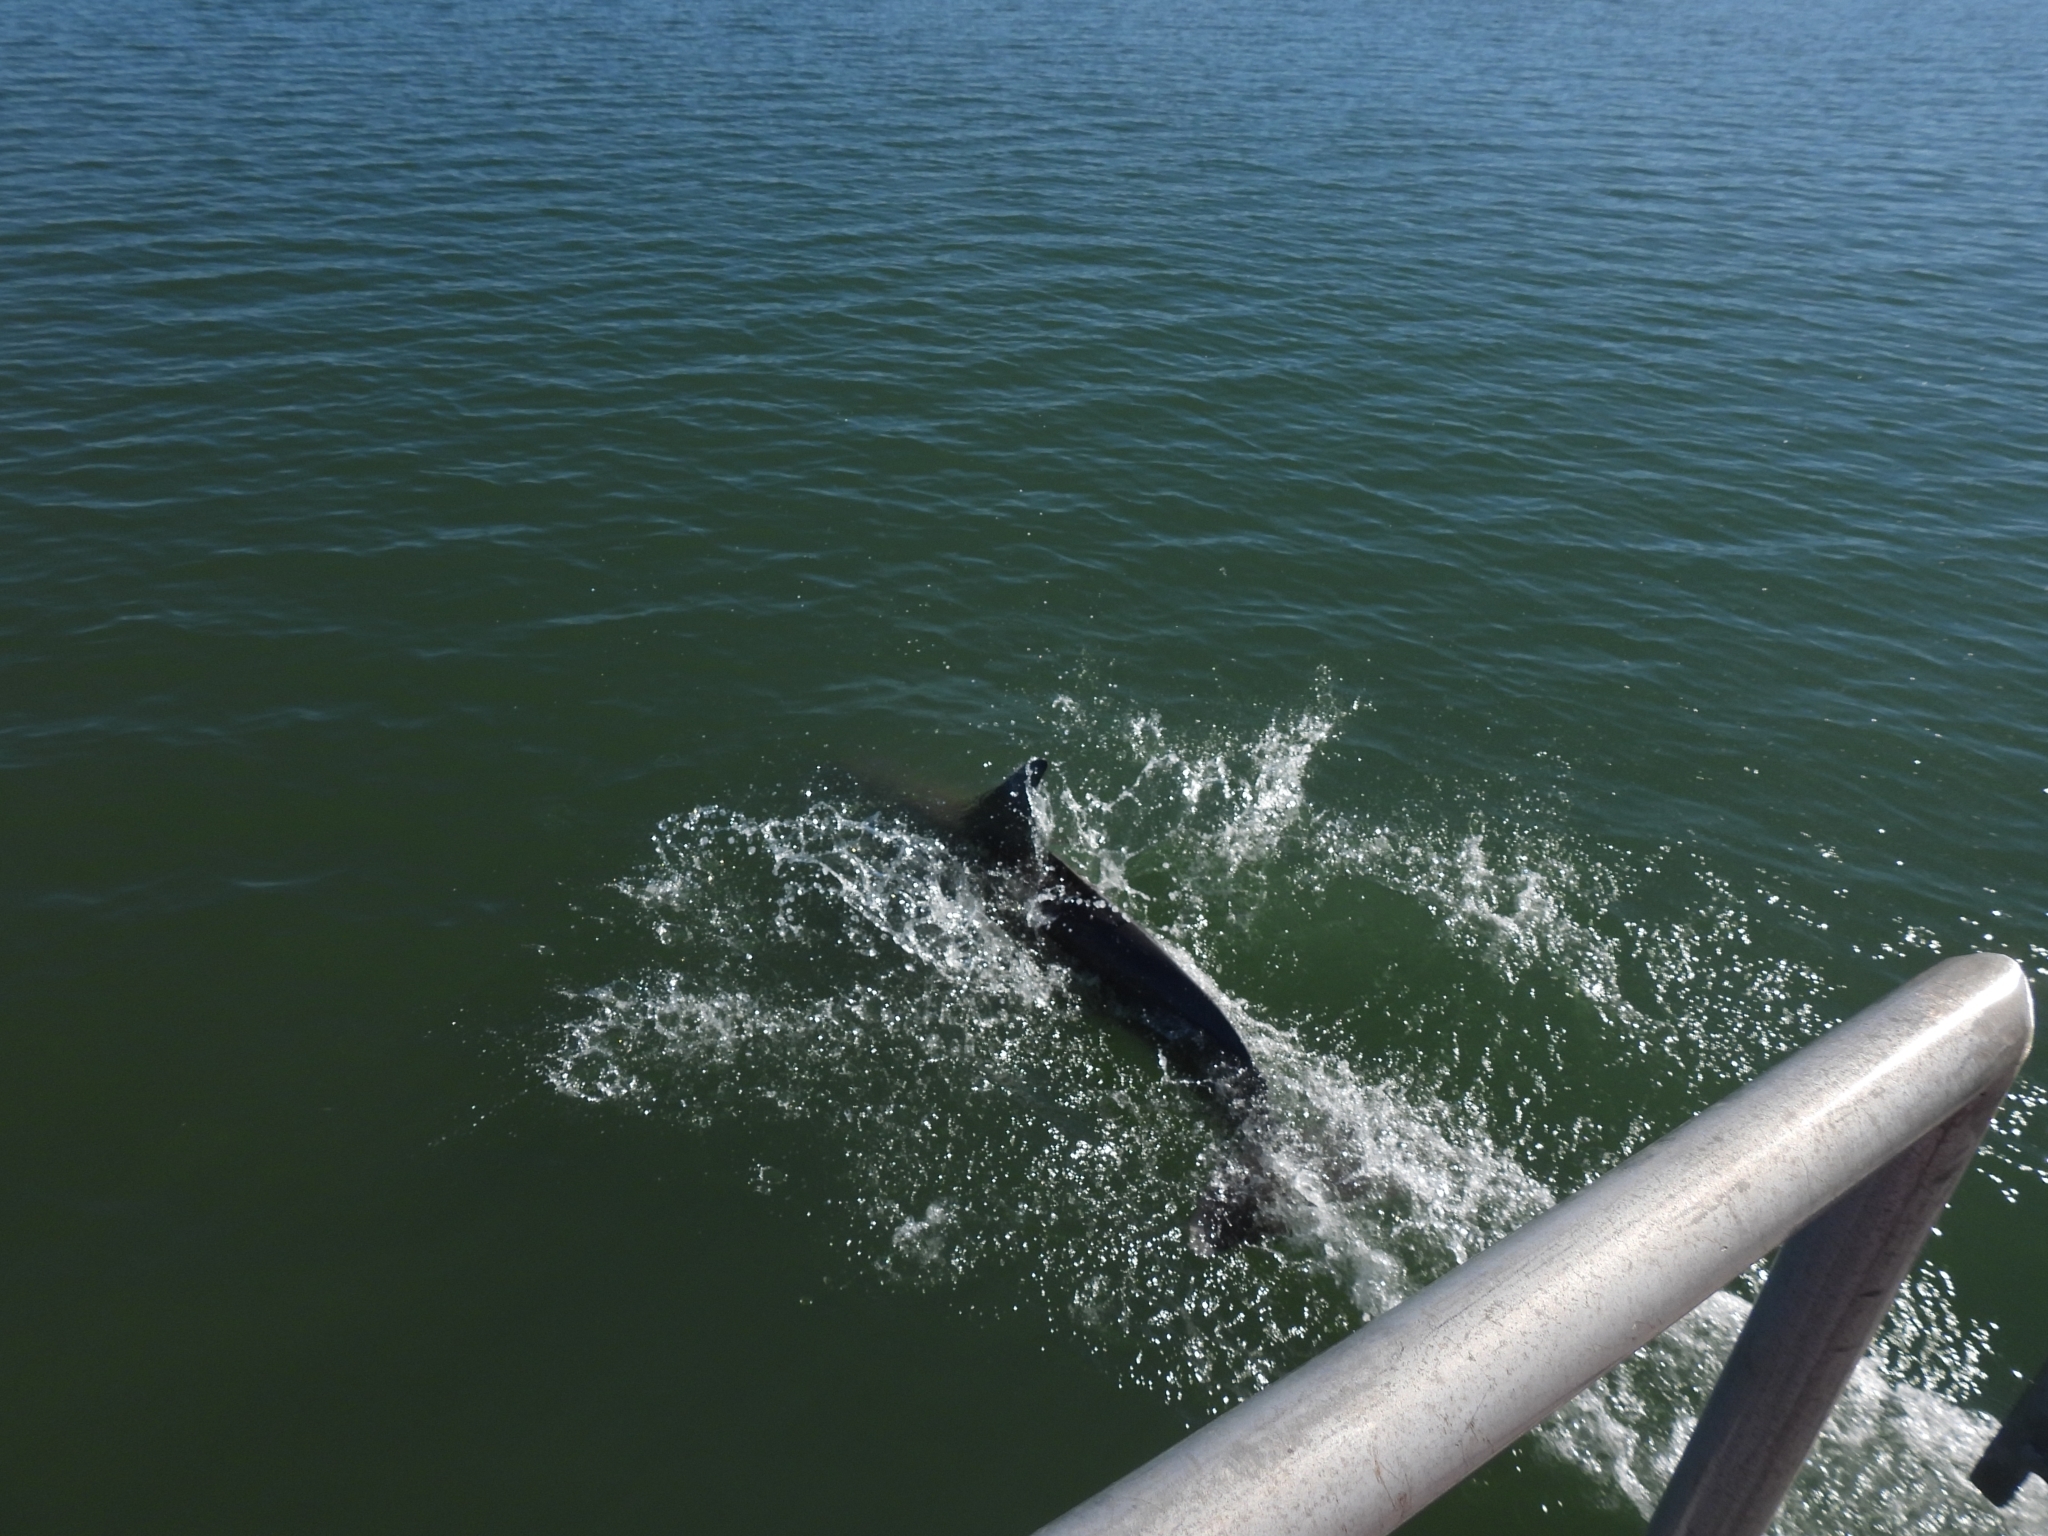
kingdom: Animalia
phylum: Chordata
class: Mammalia
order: Cetacea
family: Delphinidae
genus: Tursiops
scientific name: Tursiops truncatus
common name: Bottlenose dolphin
